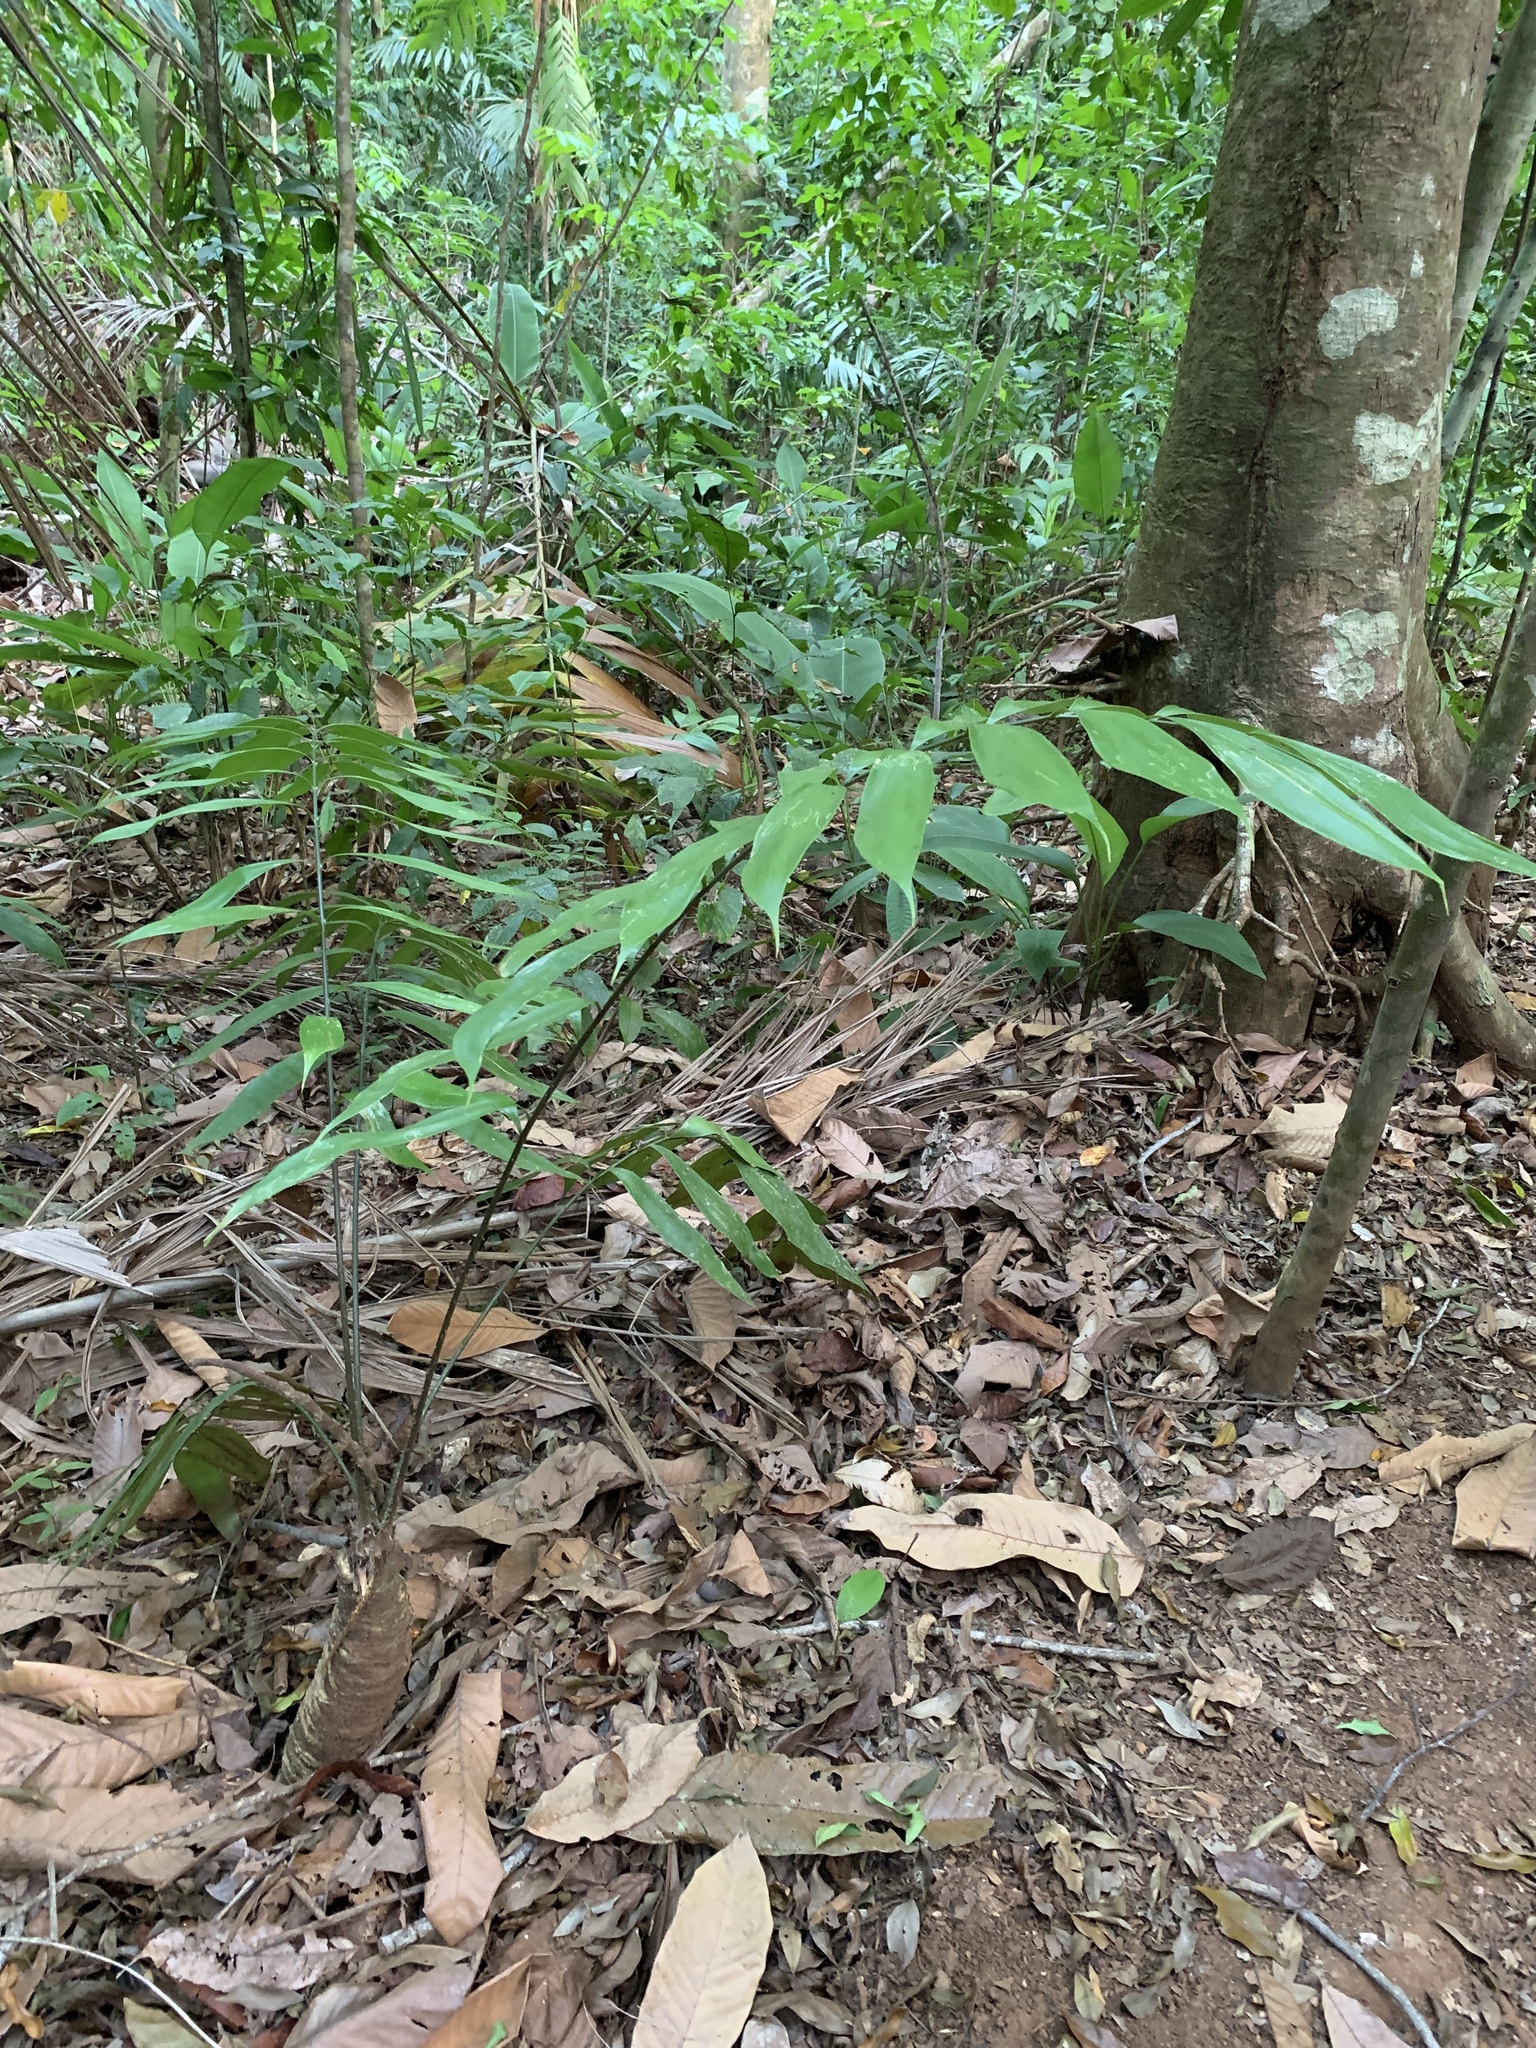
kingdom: Plantae
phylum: Tracheophyta
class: Cycadopsida
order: Cycadales
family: Zamiaceae
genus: Zamia
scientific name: Zamia fairchildiana
